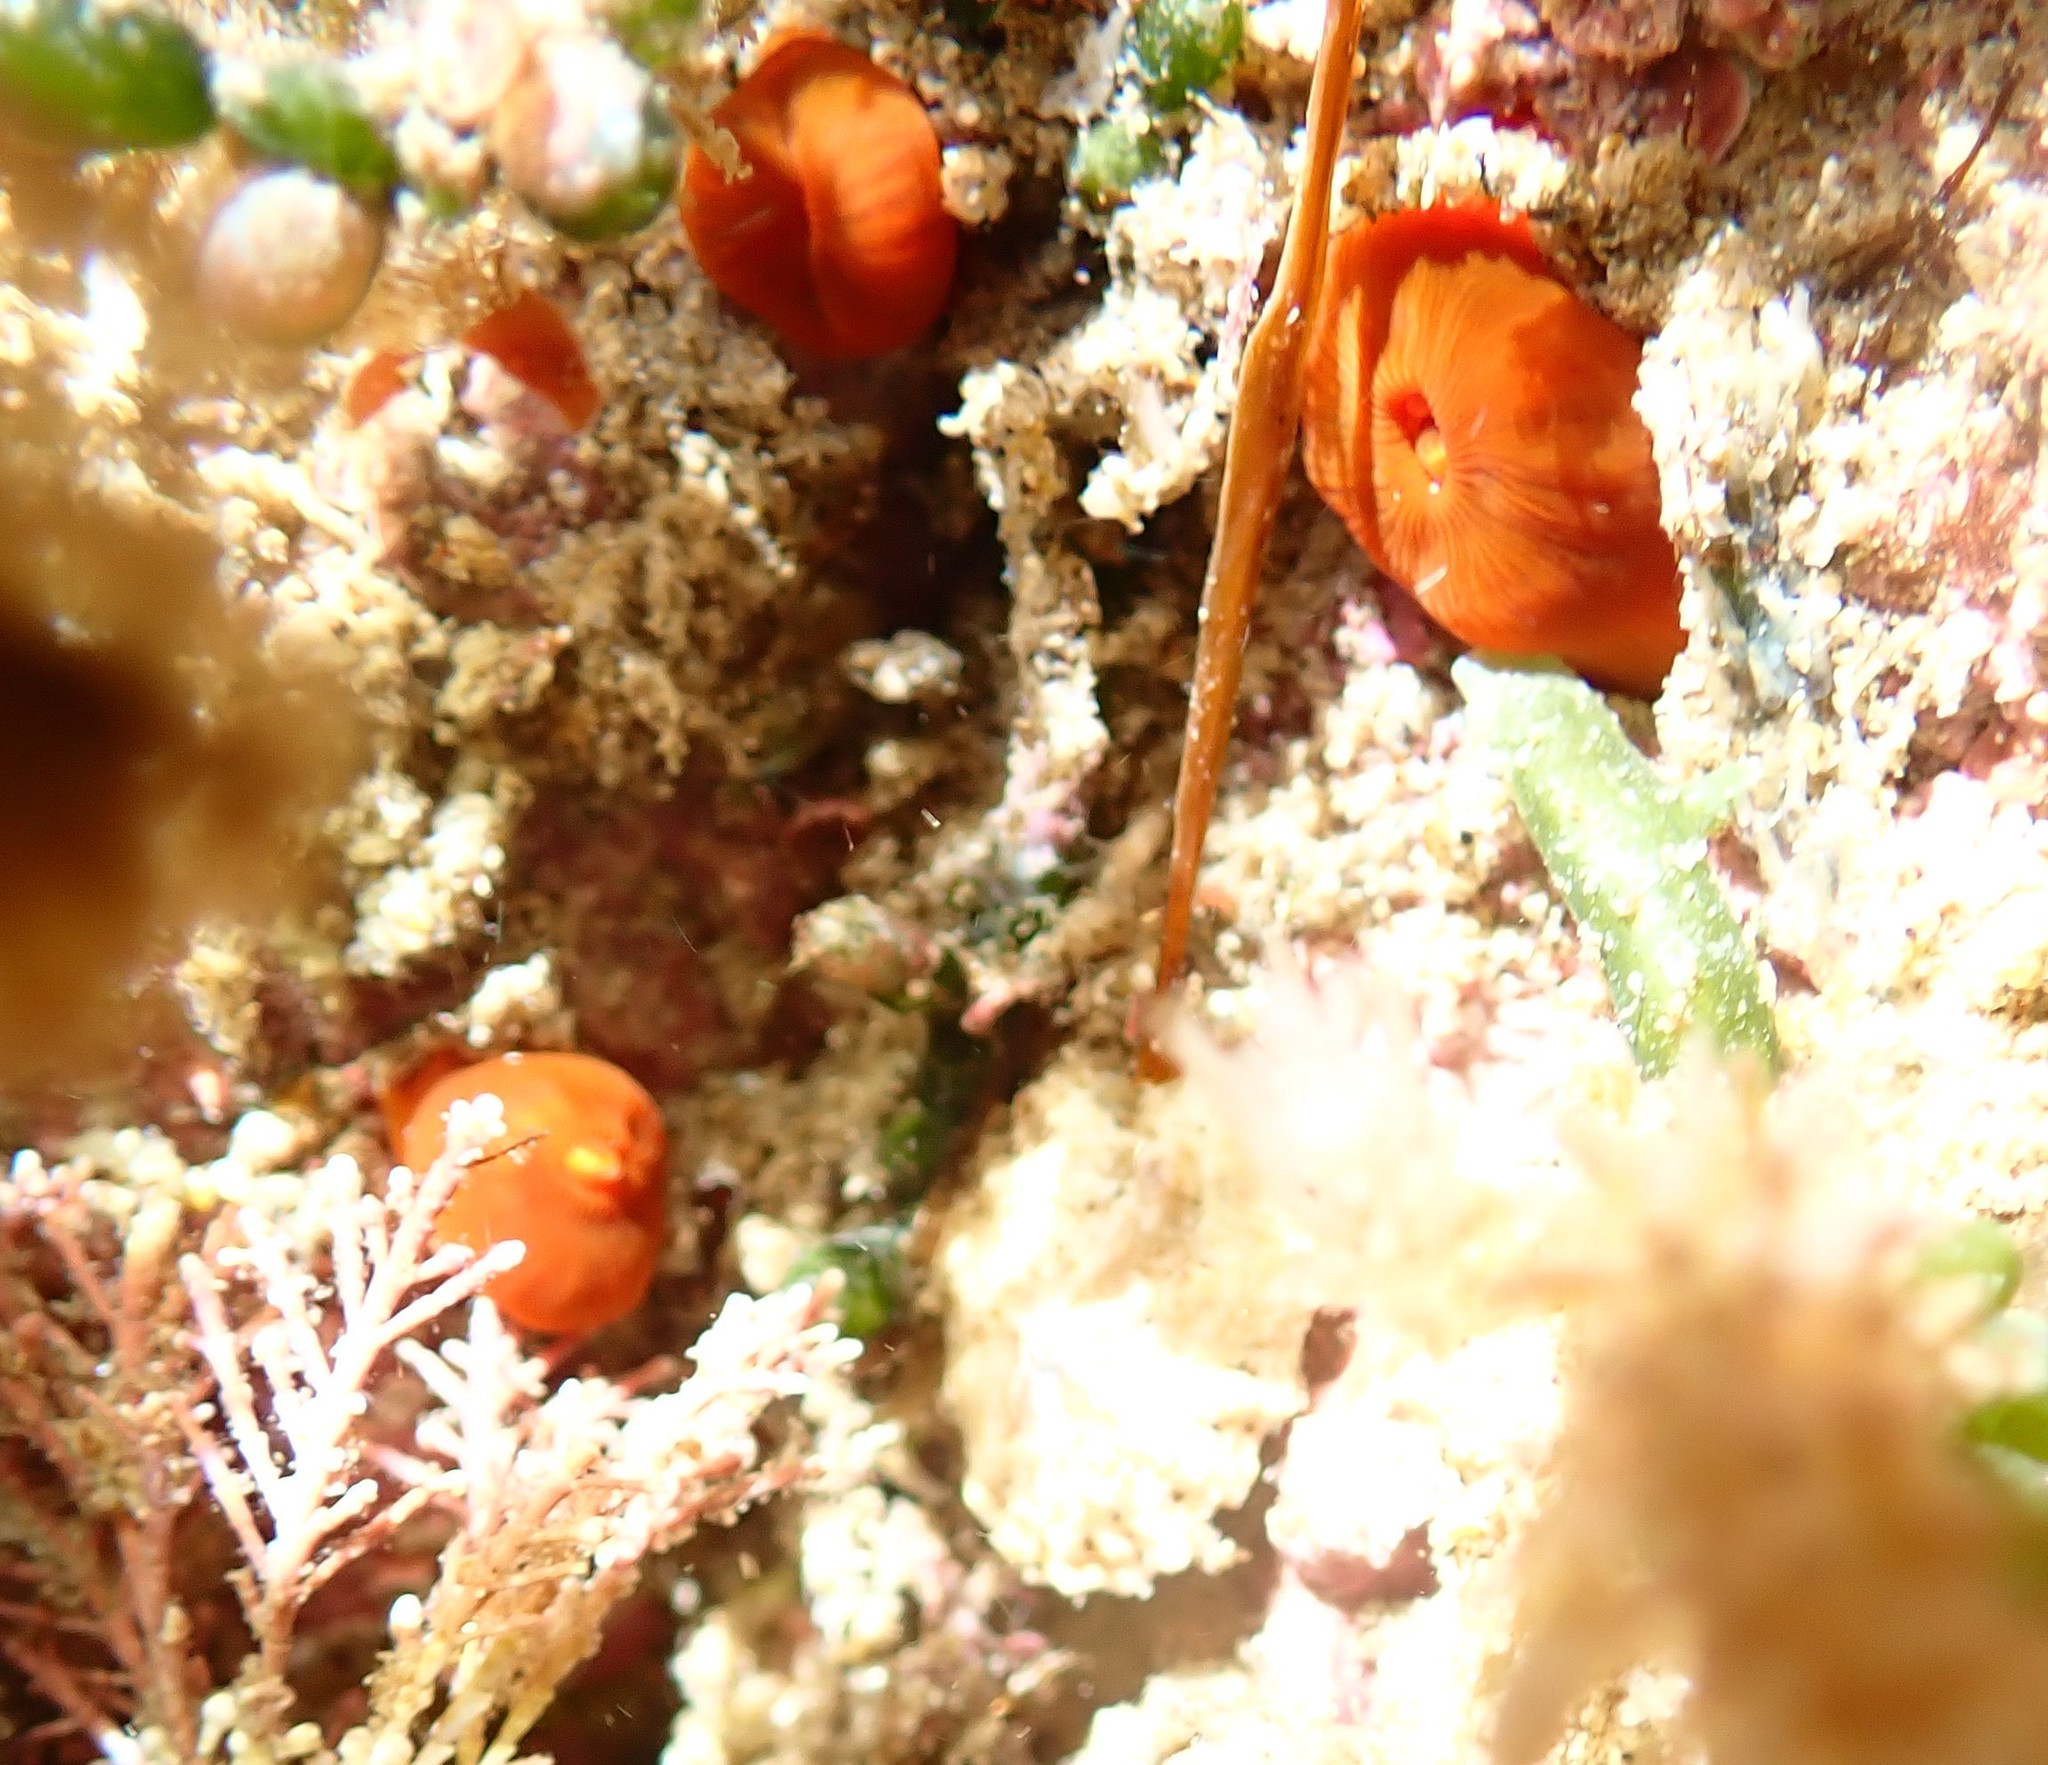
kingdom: Animalia
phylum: Cnidaria
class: Anthozoa
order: Corallimorpharia
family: Corallimorphidae
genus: Corynactis
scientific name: Corynactis australis
